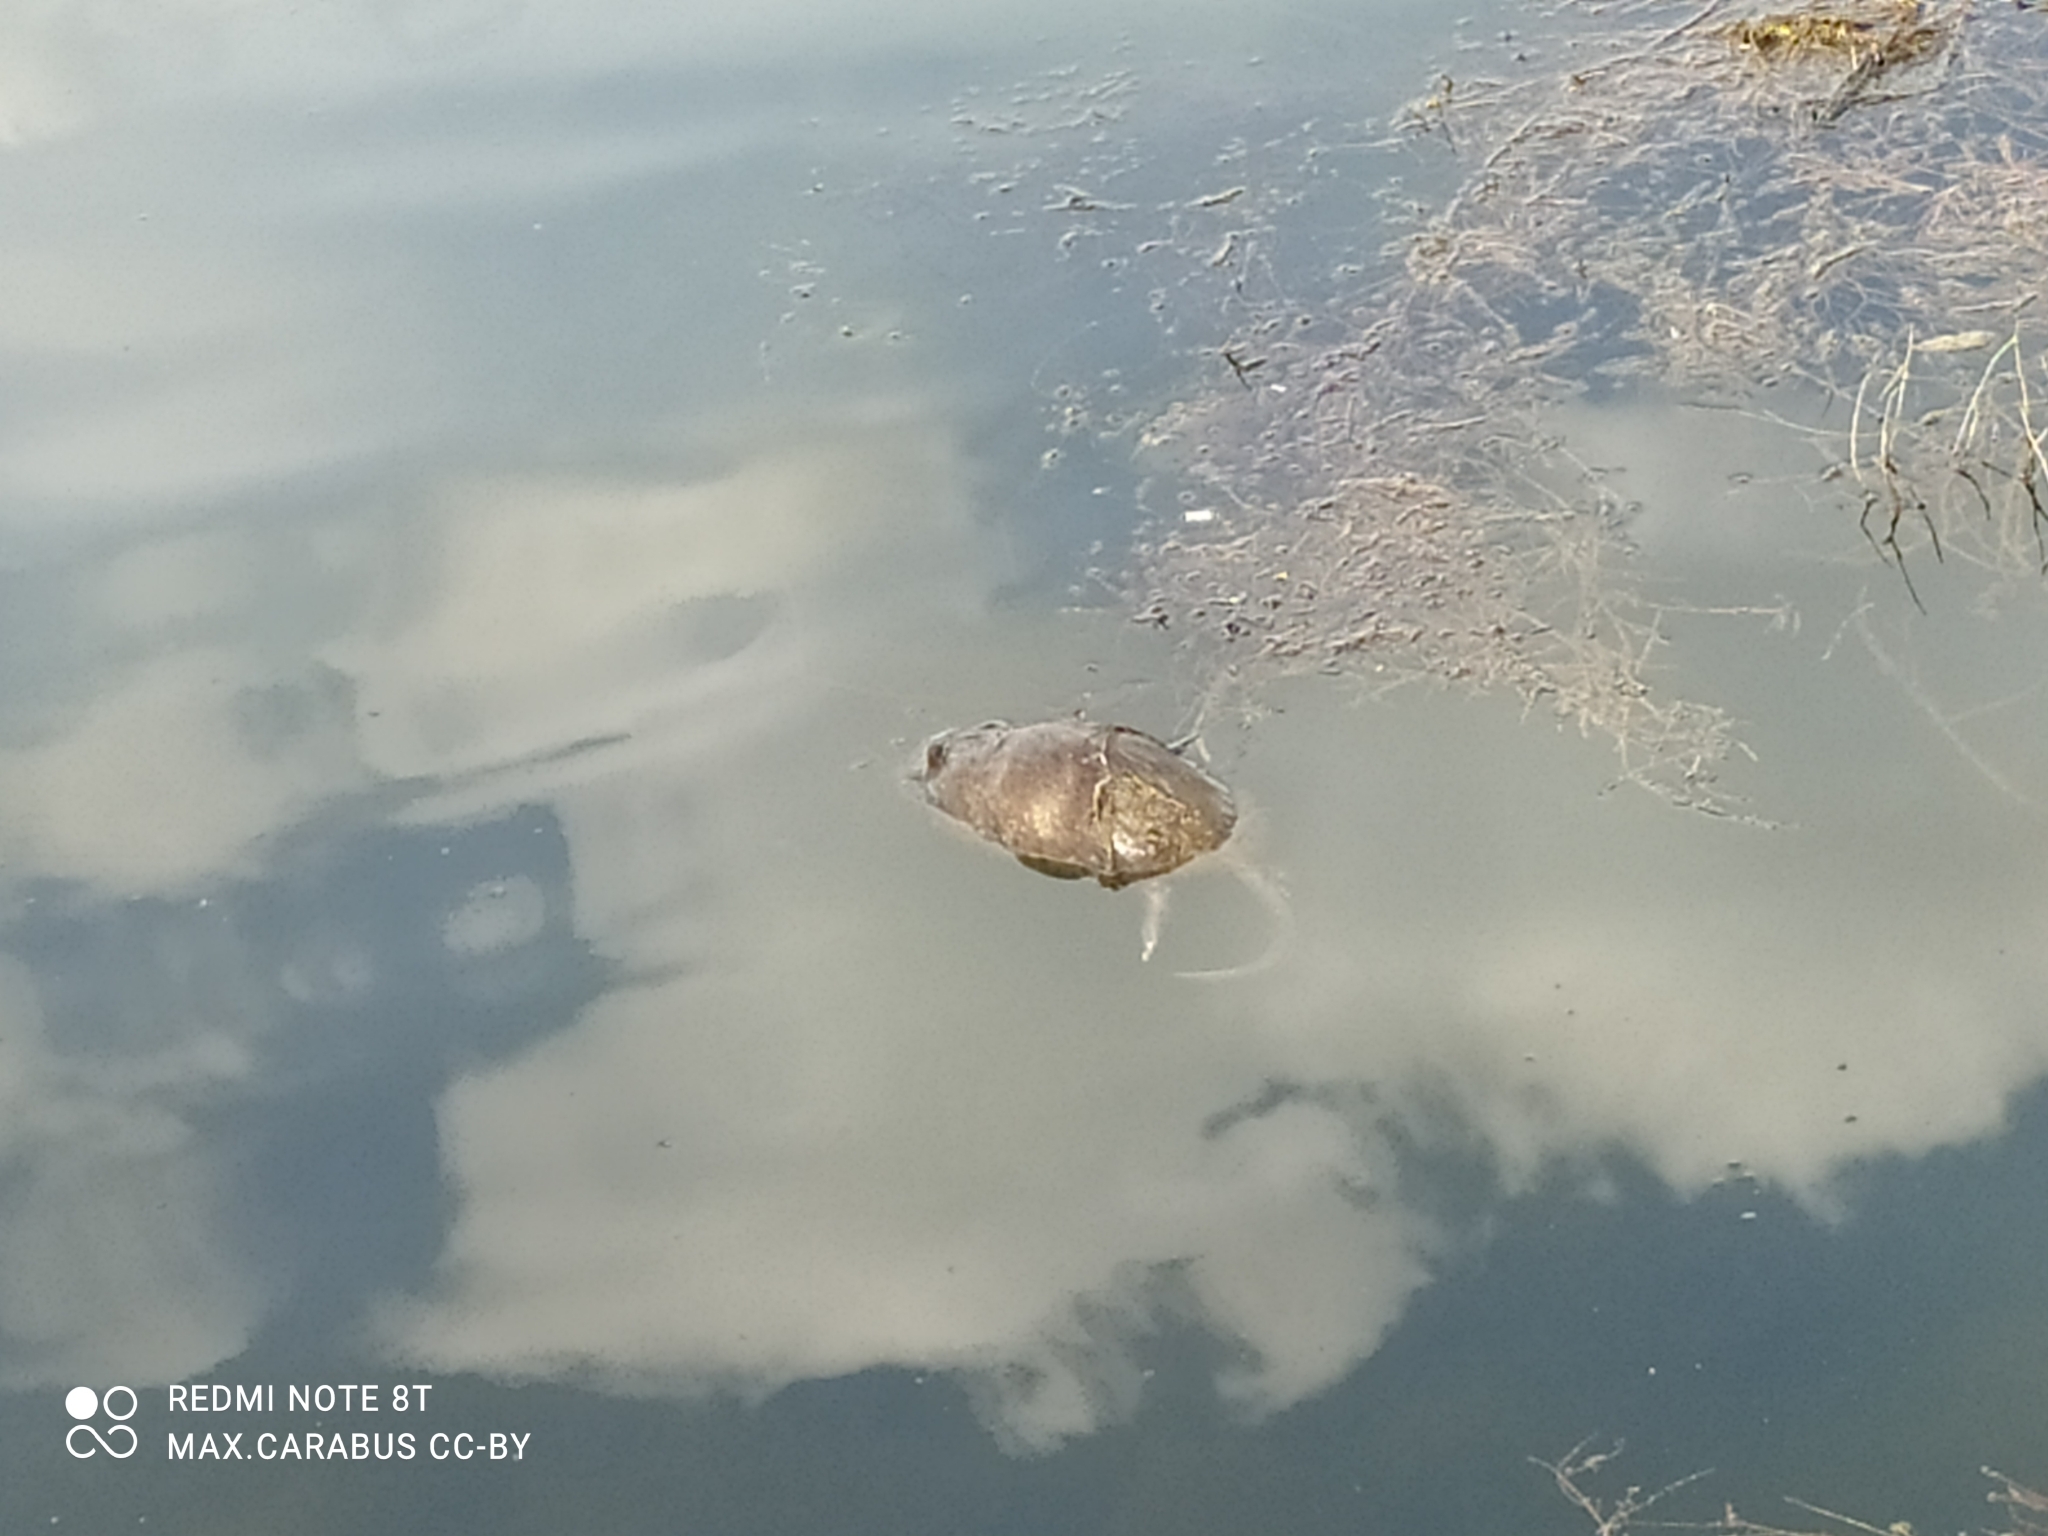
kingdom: Animalia
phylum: Chordata
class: Mammalia
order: Rodentia
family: Cricetidae
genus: Ondatra
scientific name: Ondatra zibethicus
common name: Muskrat
